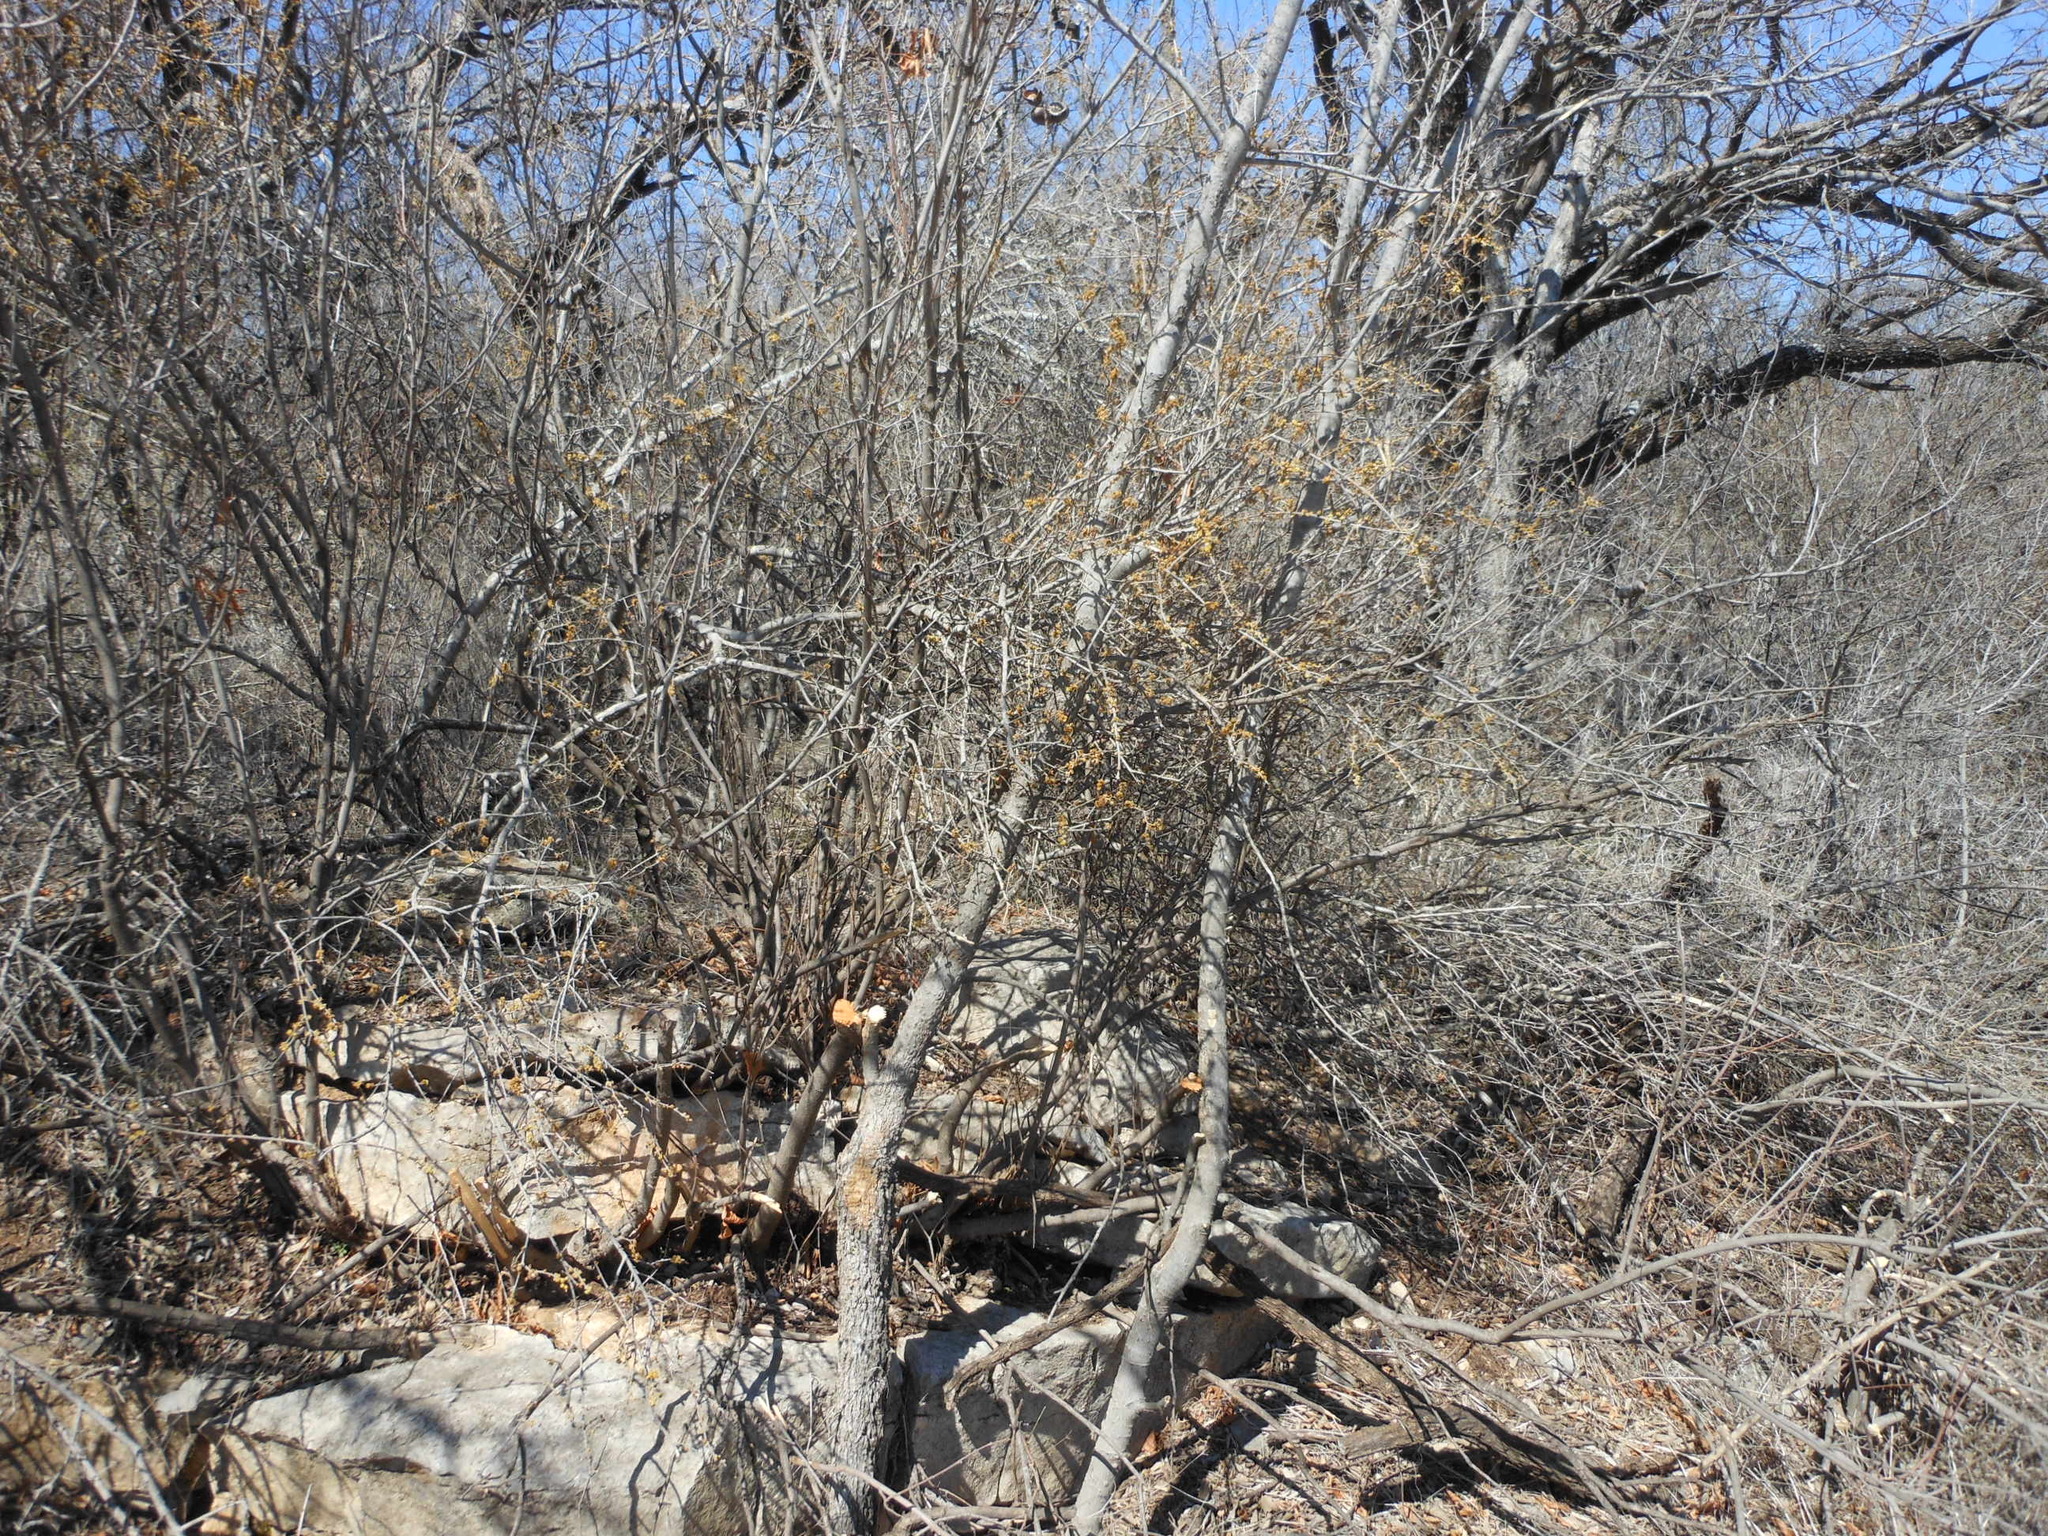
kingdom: Plantae
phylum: Tracheophyta
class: Magnoliopsida
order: Lamiales
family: Oleaceae
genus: Forestiera
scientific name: Forestiera pubescens
